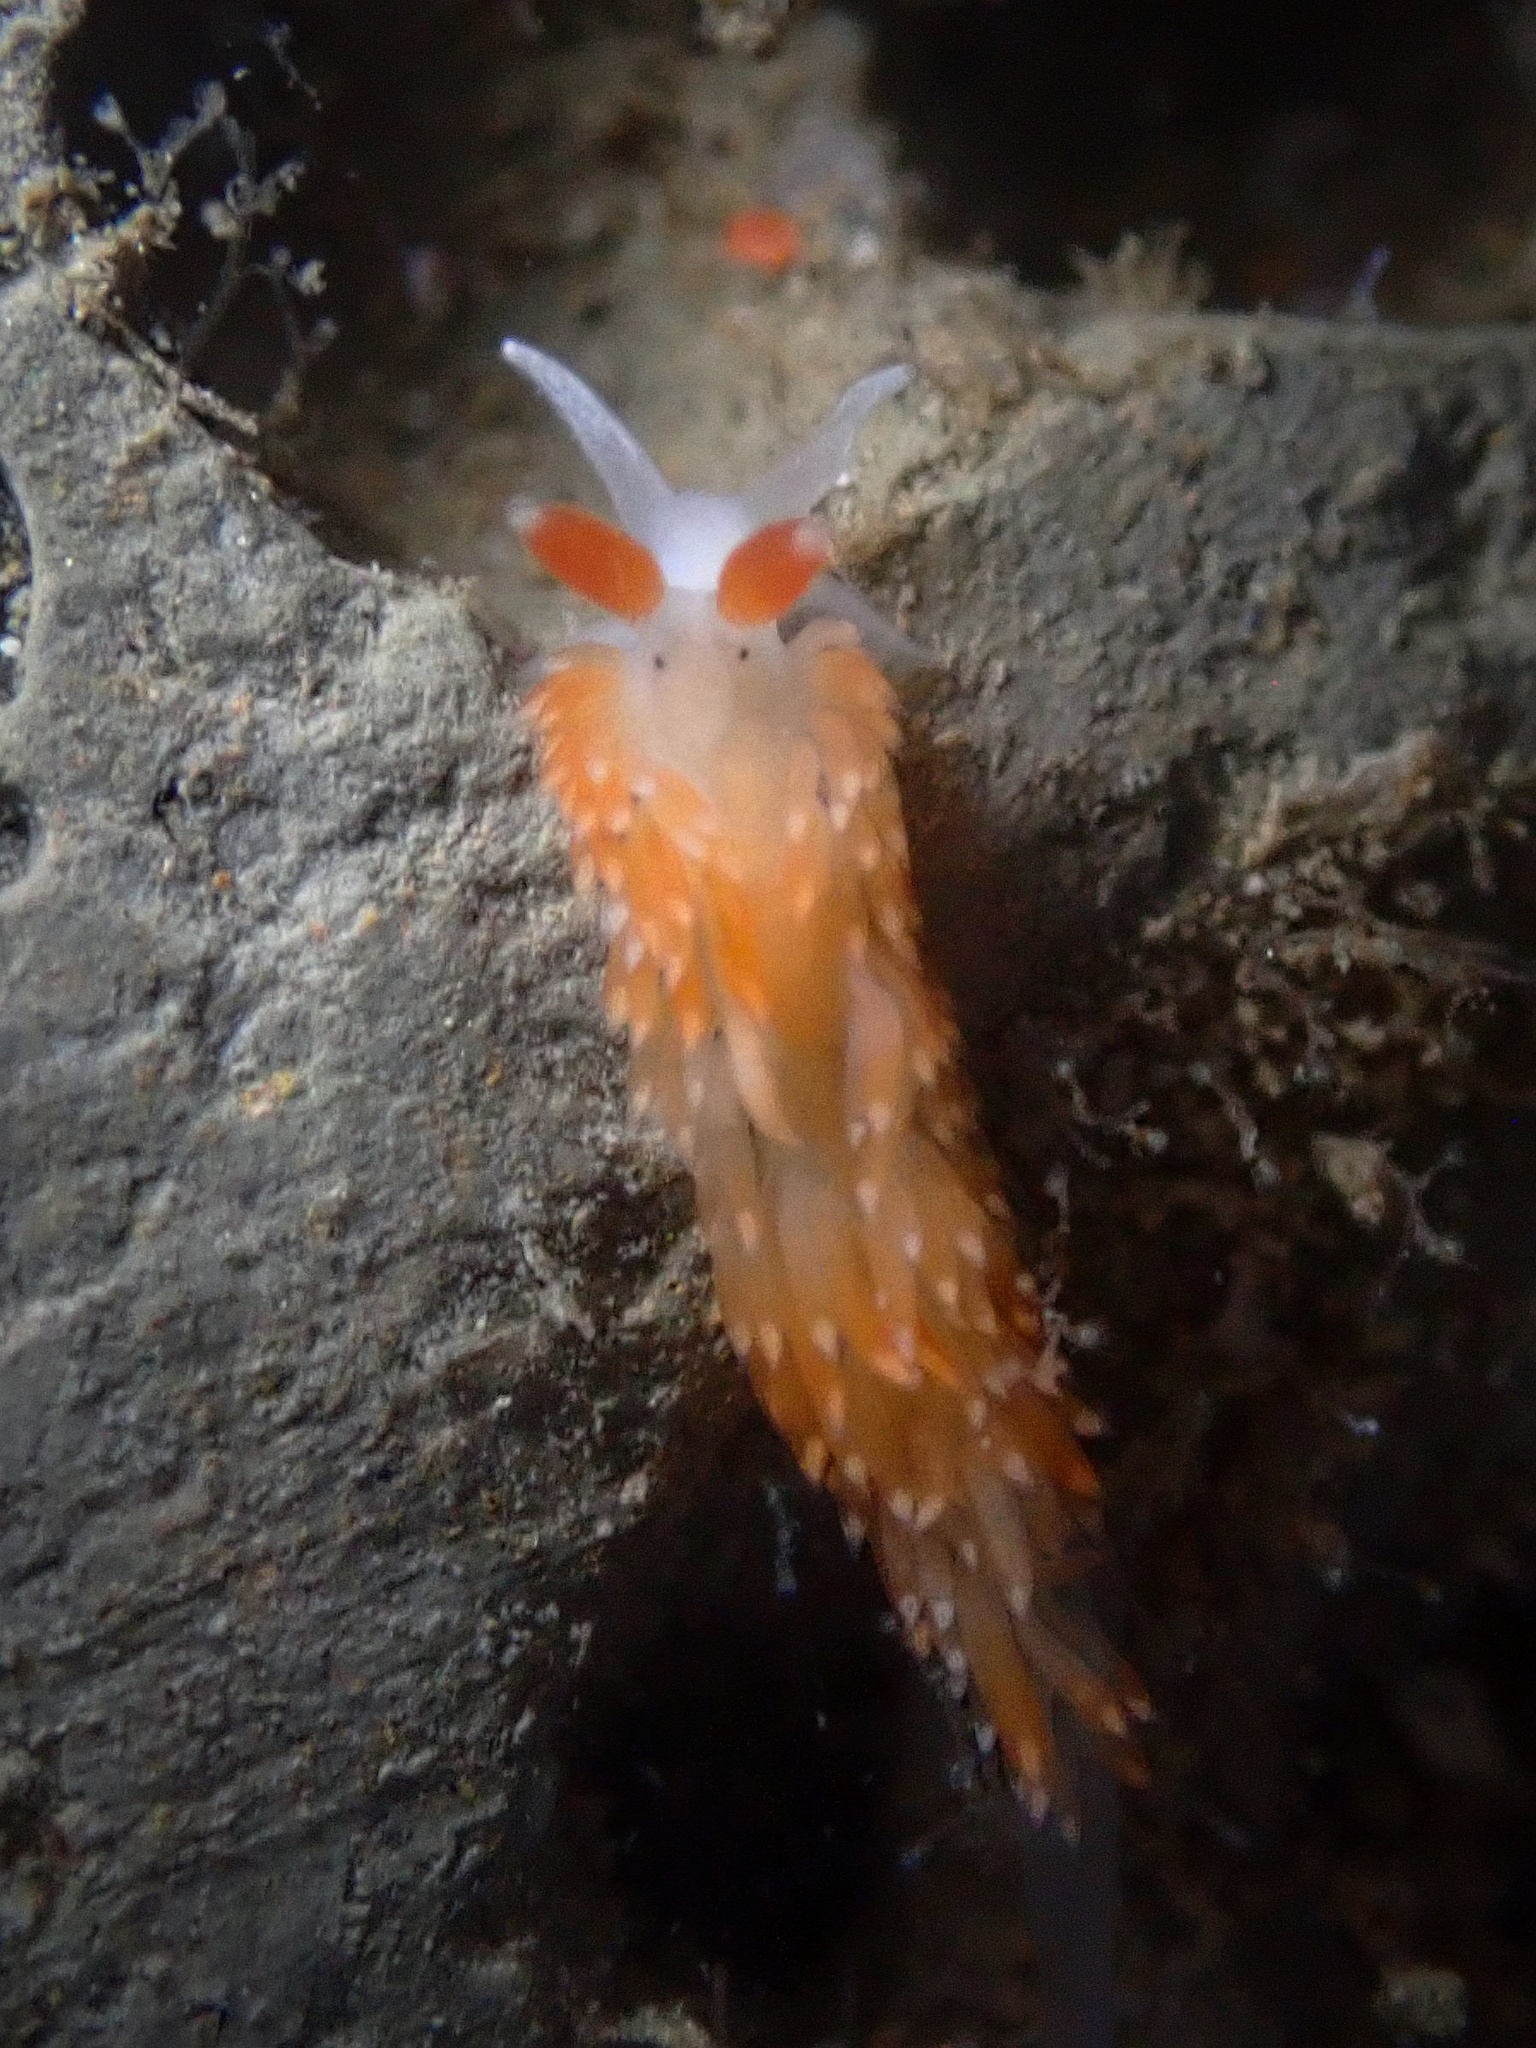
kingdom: Animalia
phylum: Mollusca
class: Gastropoda
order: Nudibranchia
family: Aeolidiidae
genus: Anteaeolidiella
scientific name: Anteaeolidiella oliviae
